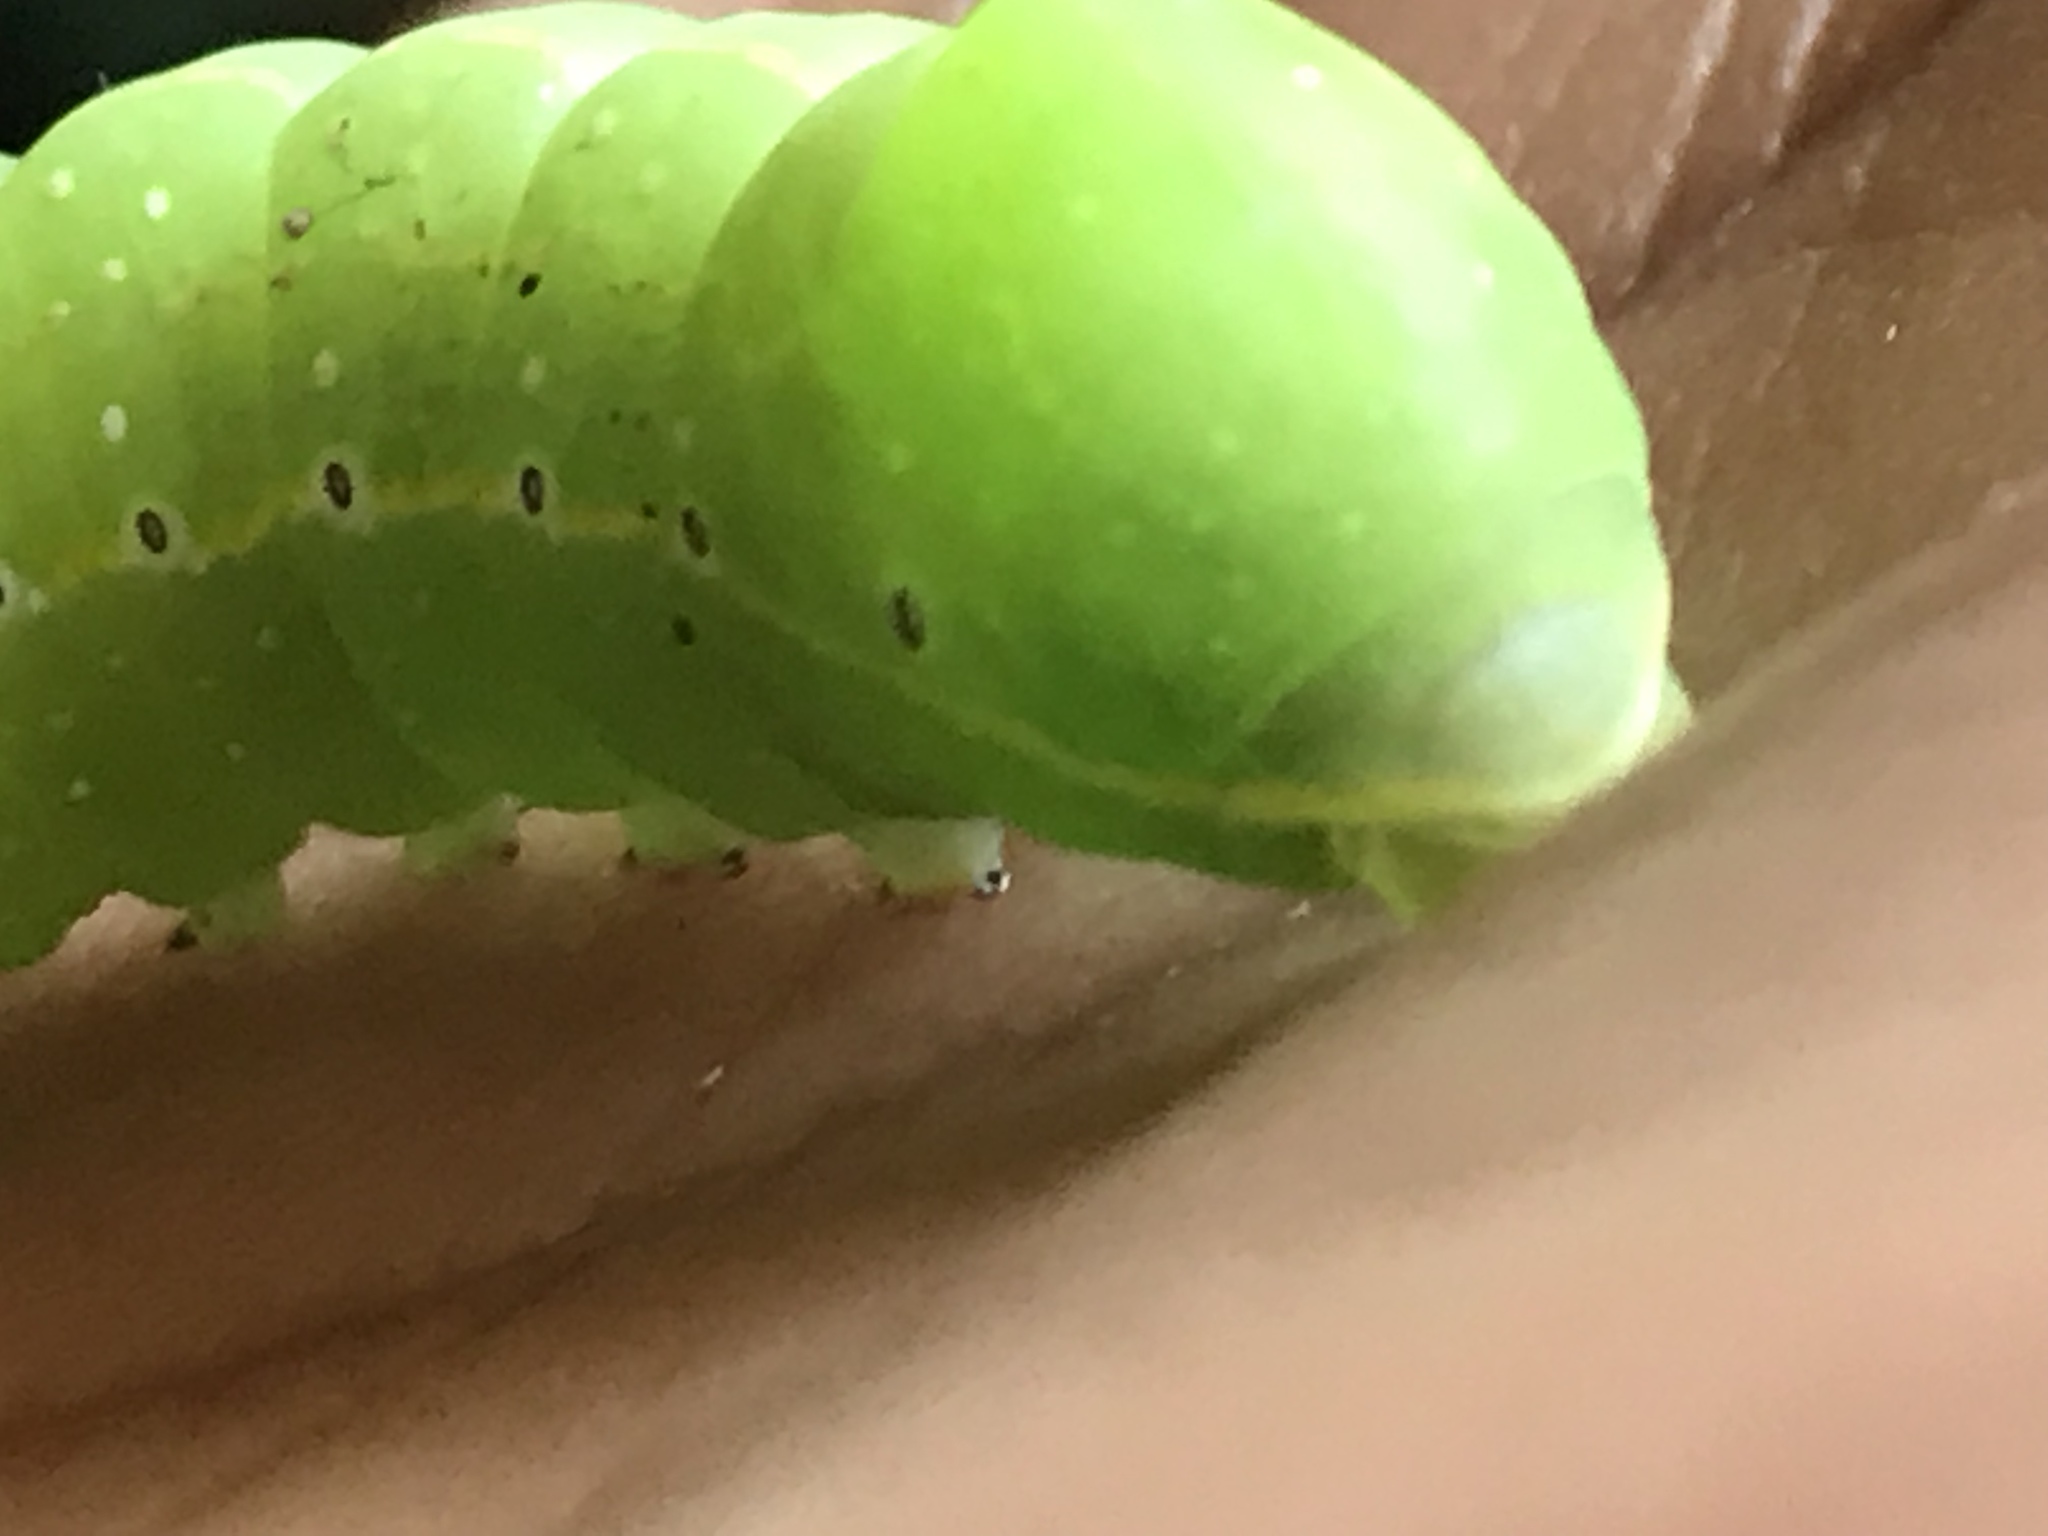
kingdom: Animalia
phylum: Arthropoda
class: Insecta
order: Lepidoptera
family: Noctuidae
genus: Amphipyra
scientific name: Amphipyra pyramidoides
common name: American copper underwing
